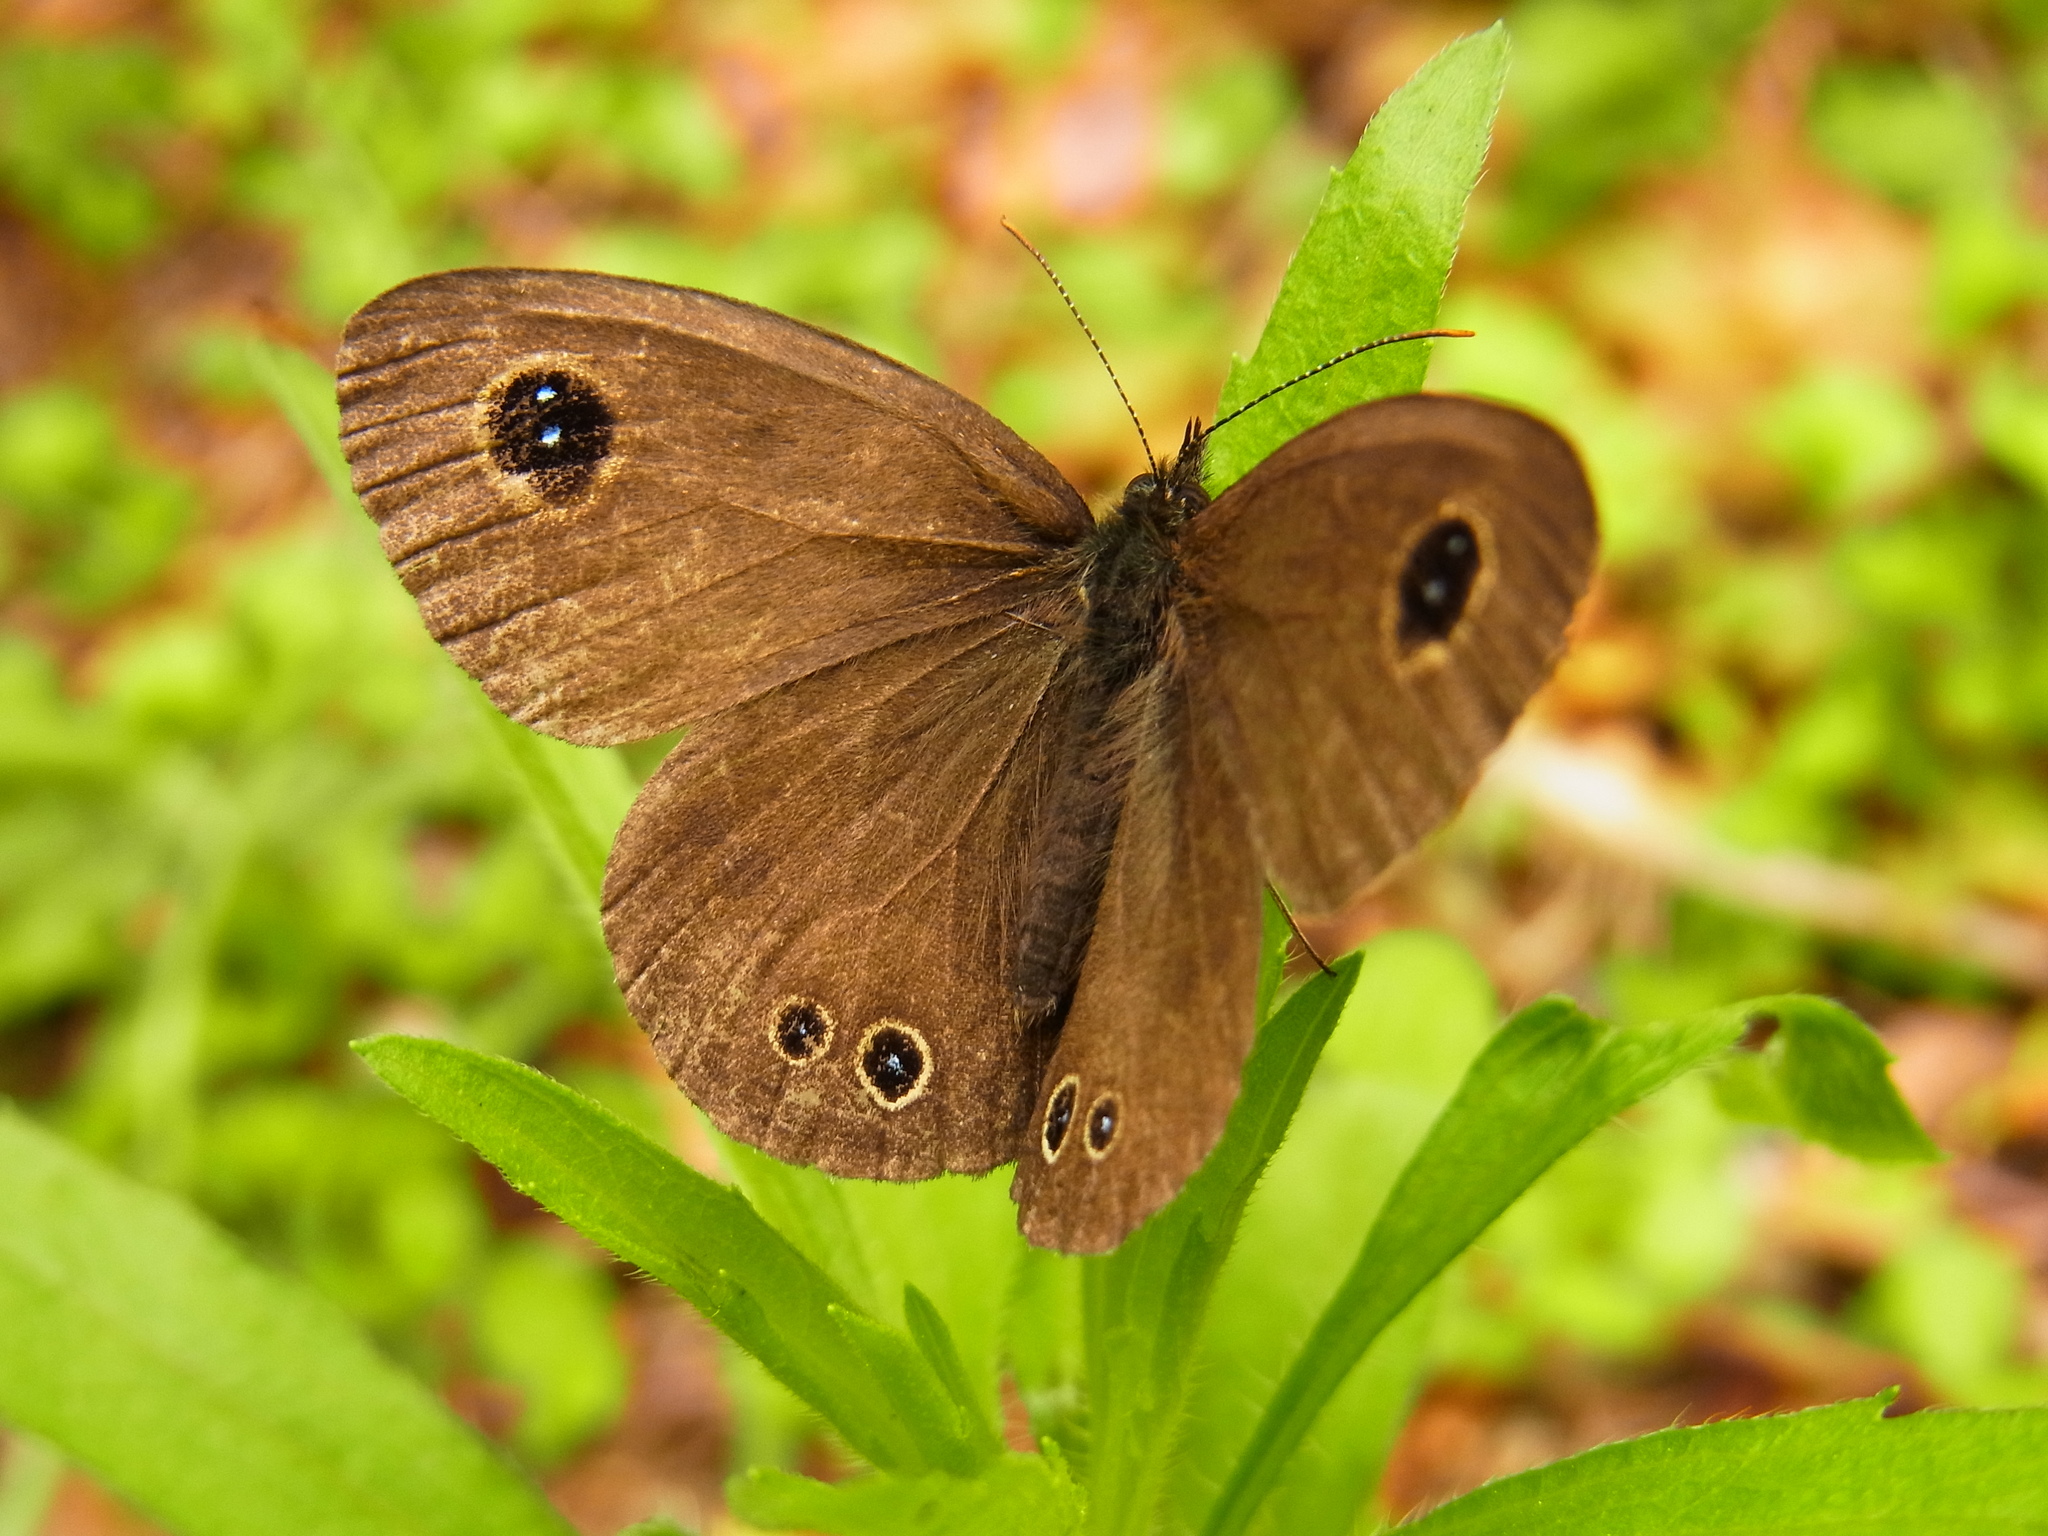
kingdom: Animalia
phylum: Arthropoda
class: Insecta
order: Lepidoptera
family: Nymphalidae
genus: Ypthima
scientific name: Ypthima argus
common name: Common fivering
